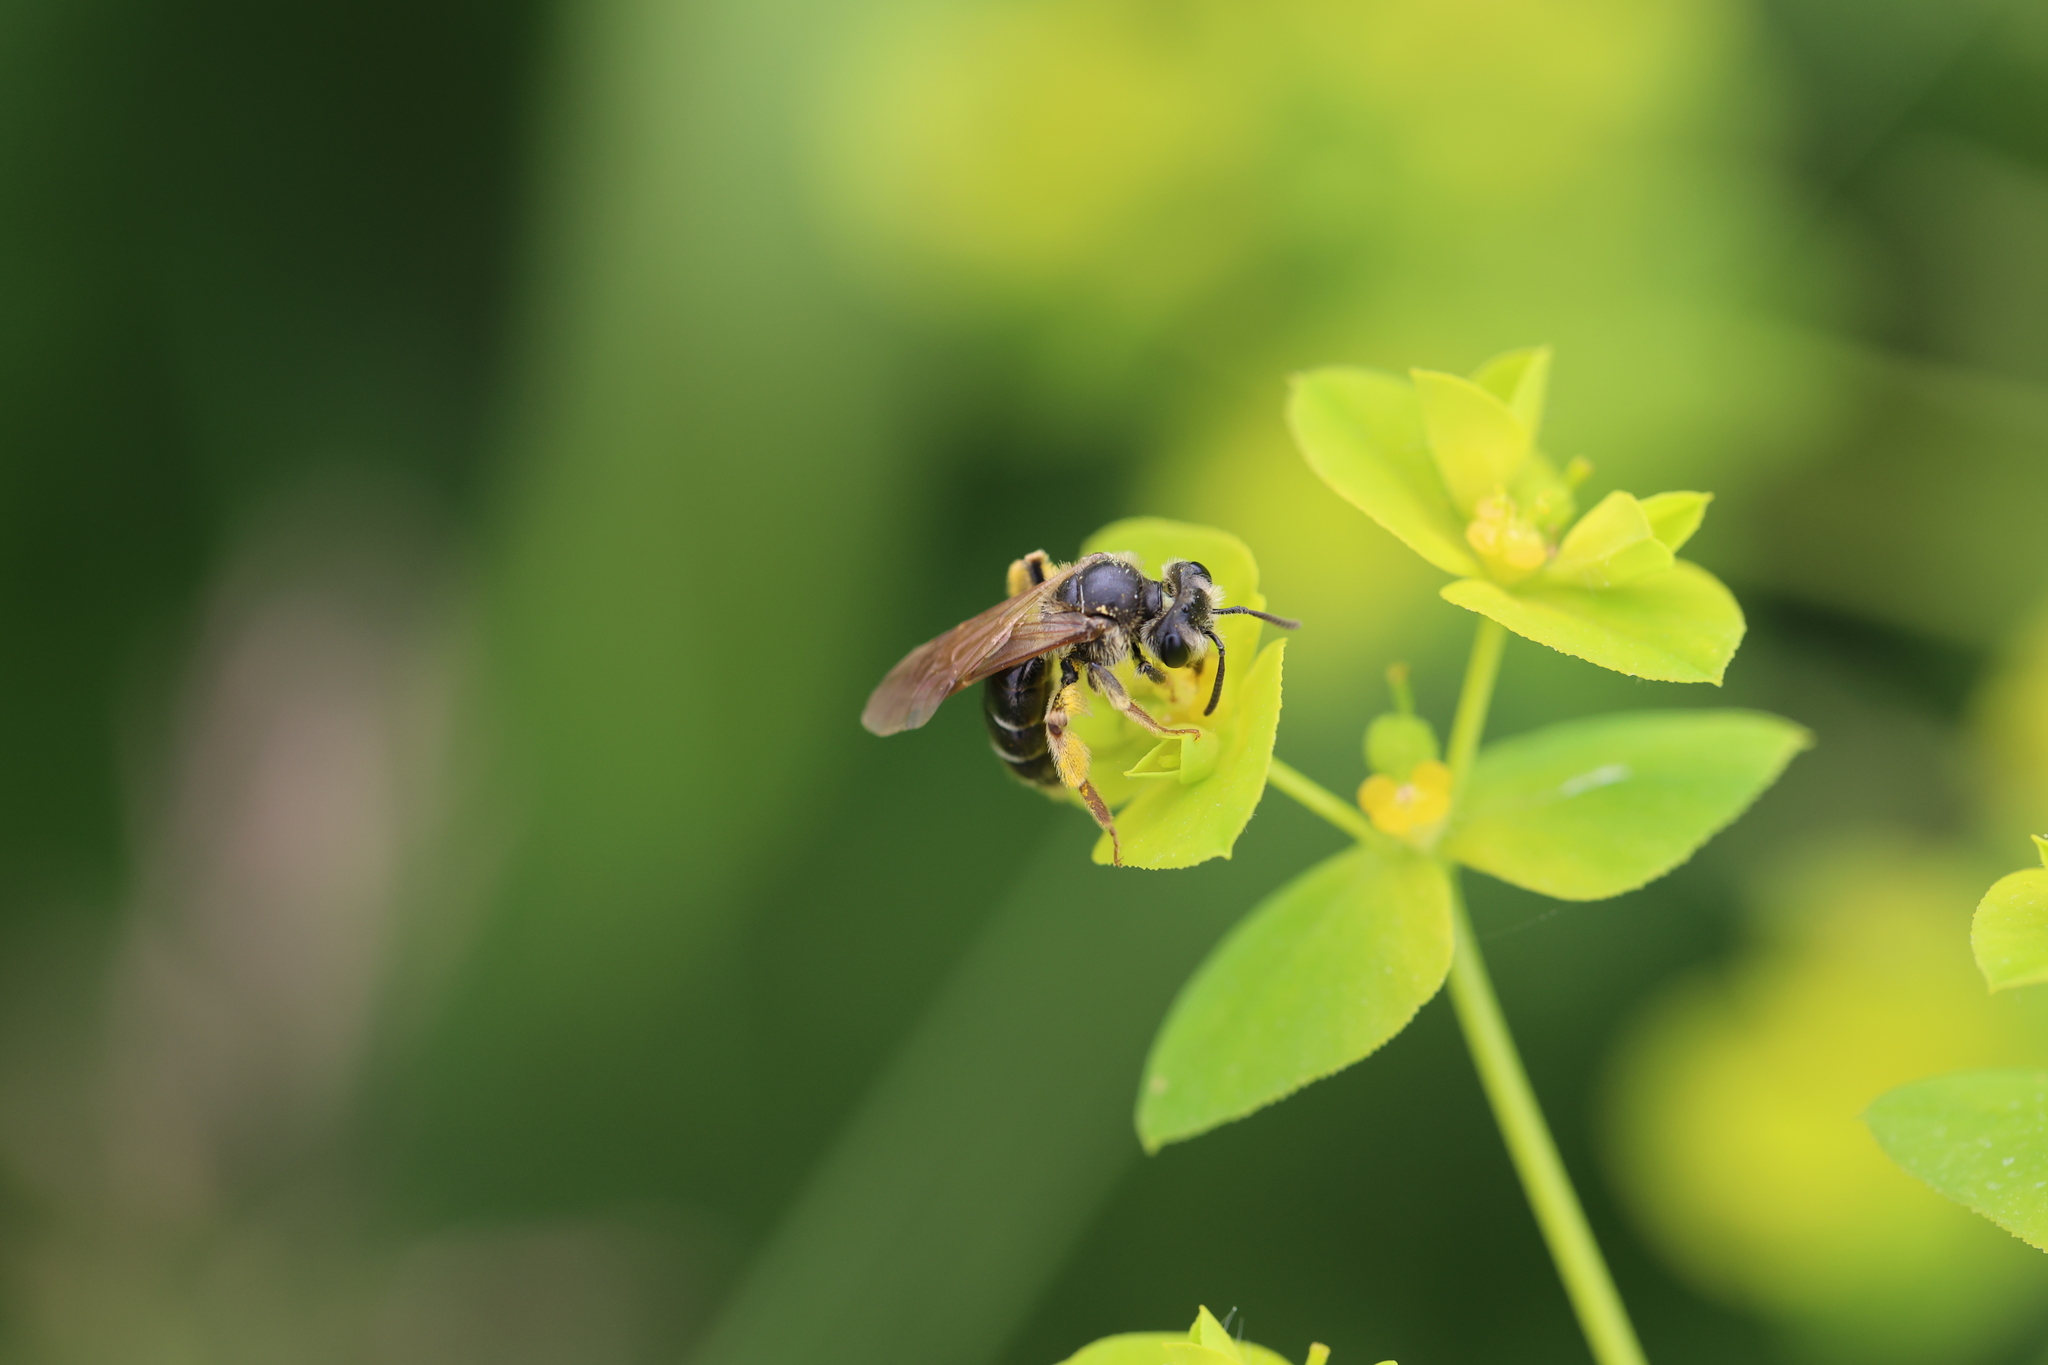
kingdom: Animalia
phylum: Arthropoda
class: Insecta
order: Hymenoptera
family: Andrenidae
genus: Andrena
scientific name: Andrena chrysosceles
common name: Hawthorne mining bee
